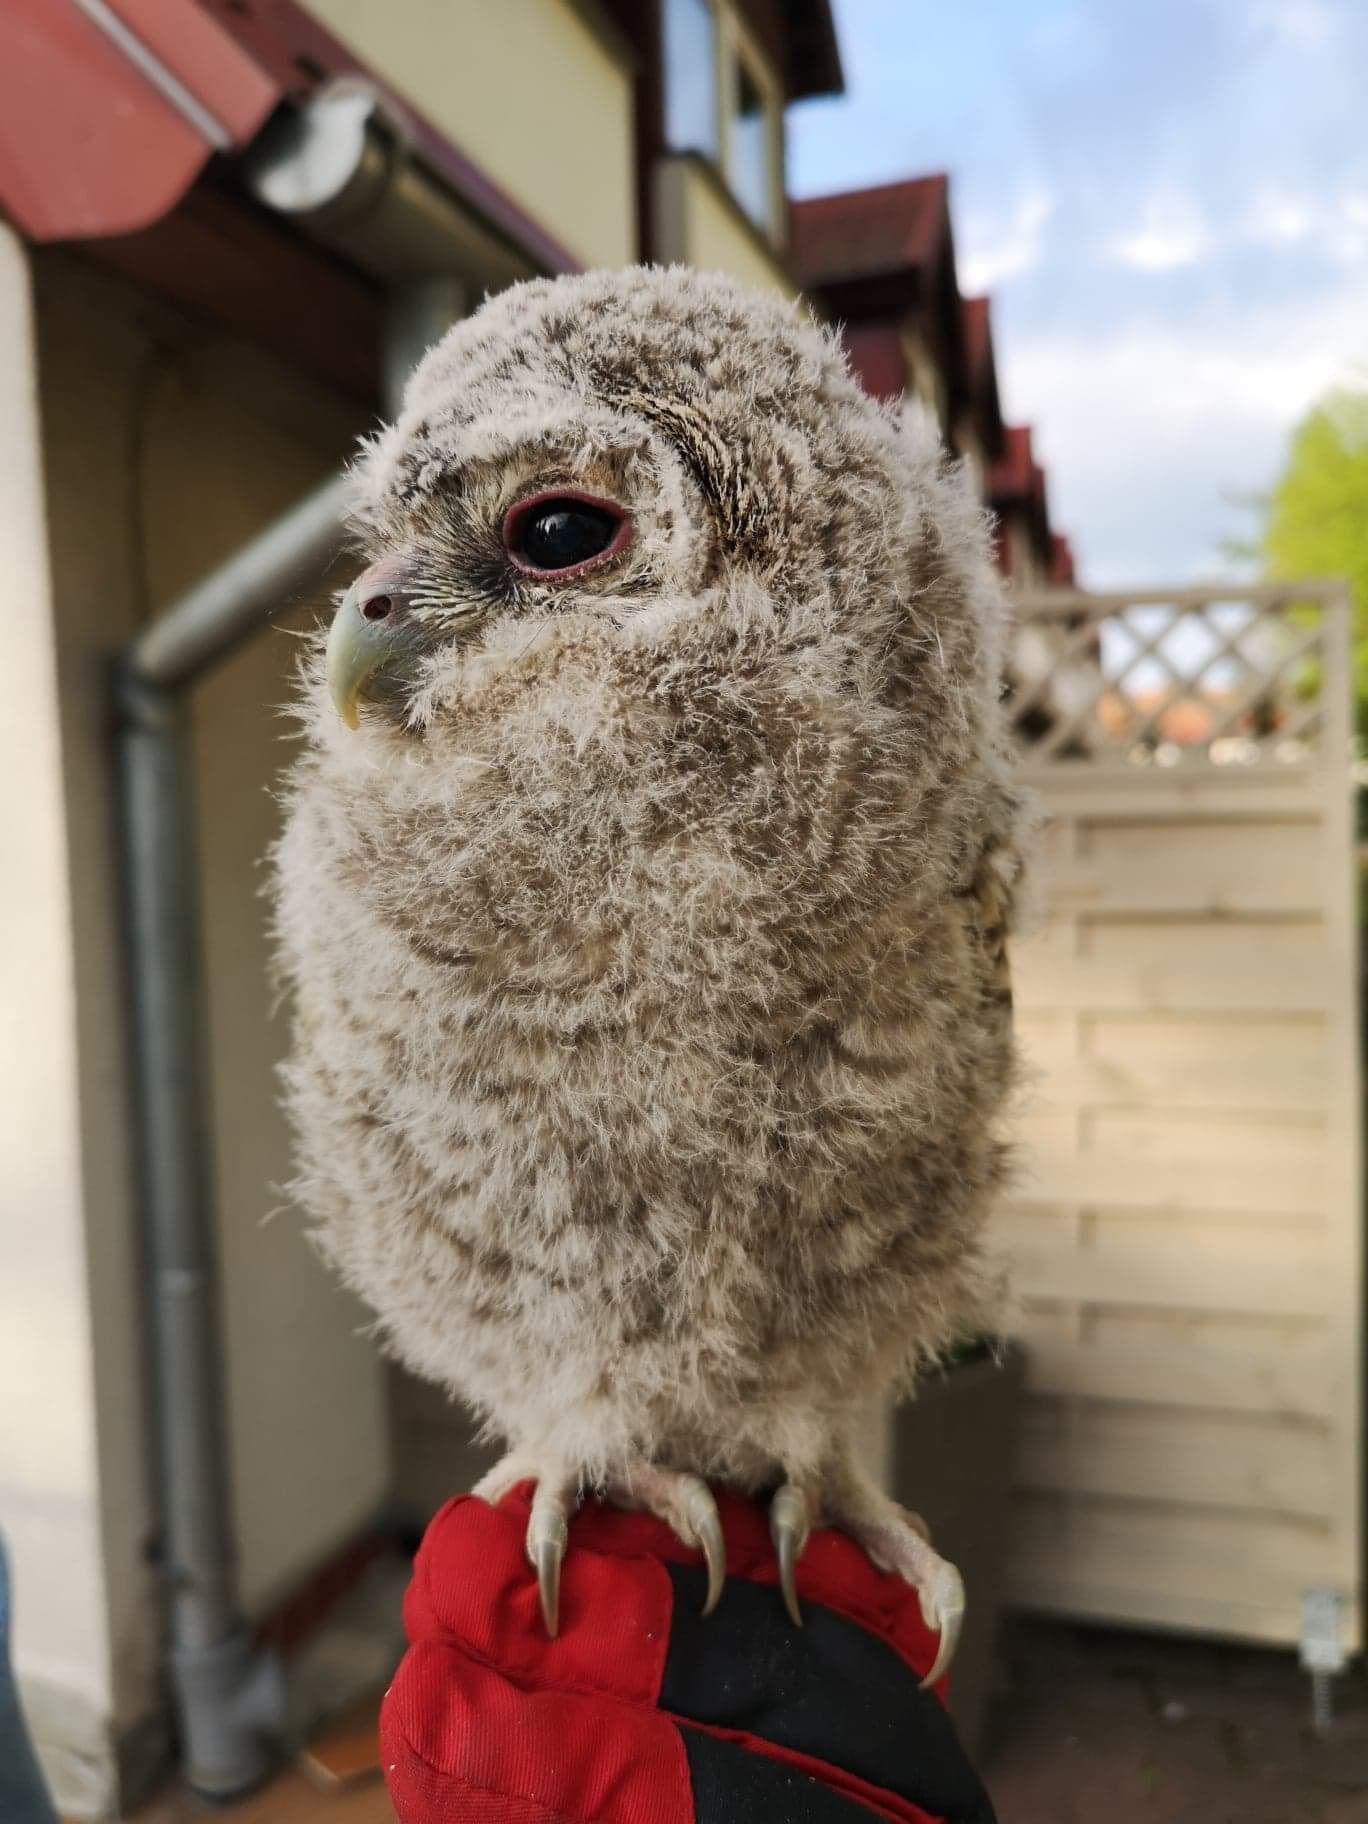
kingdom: Animalia
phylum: Chordata
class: Aves
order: Strigiformes
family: Strigidae
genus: Strix
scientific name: Strix aluco
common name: Tawny owl
